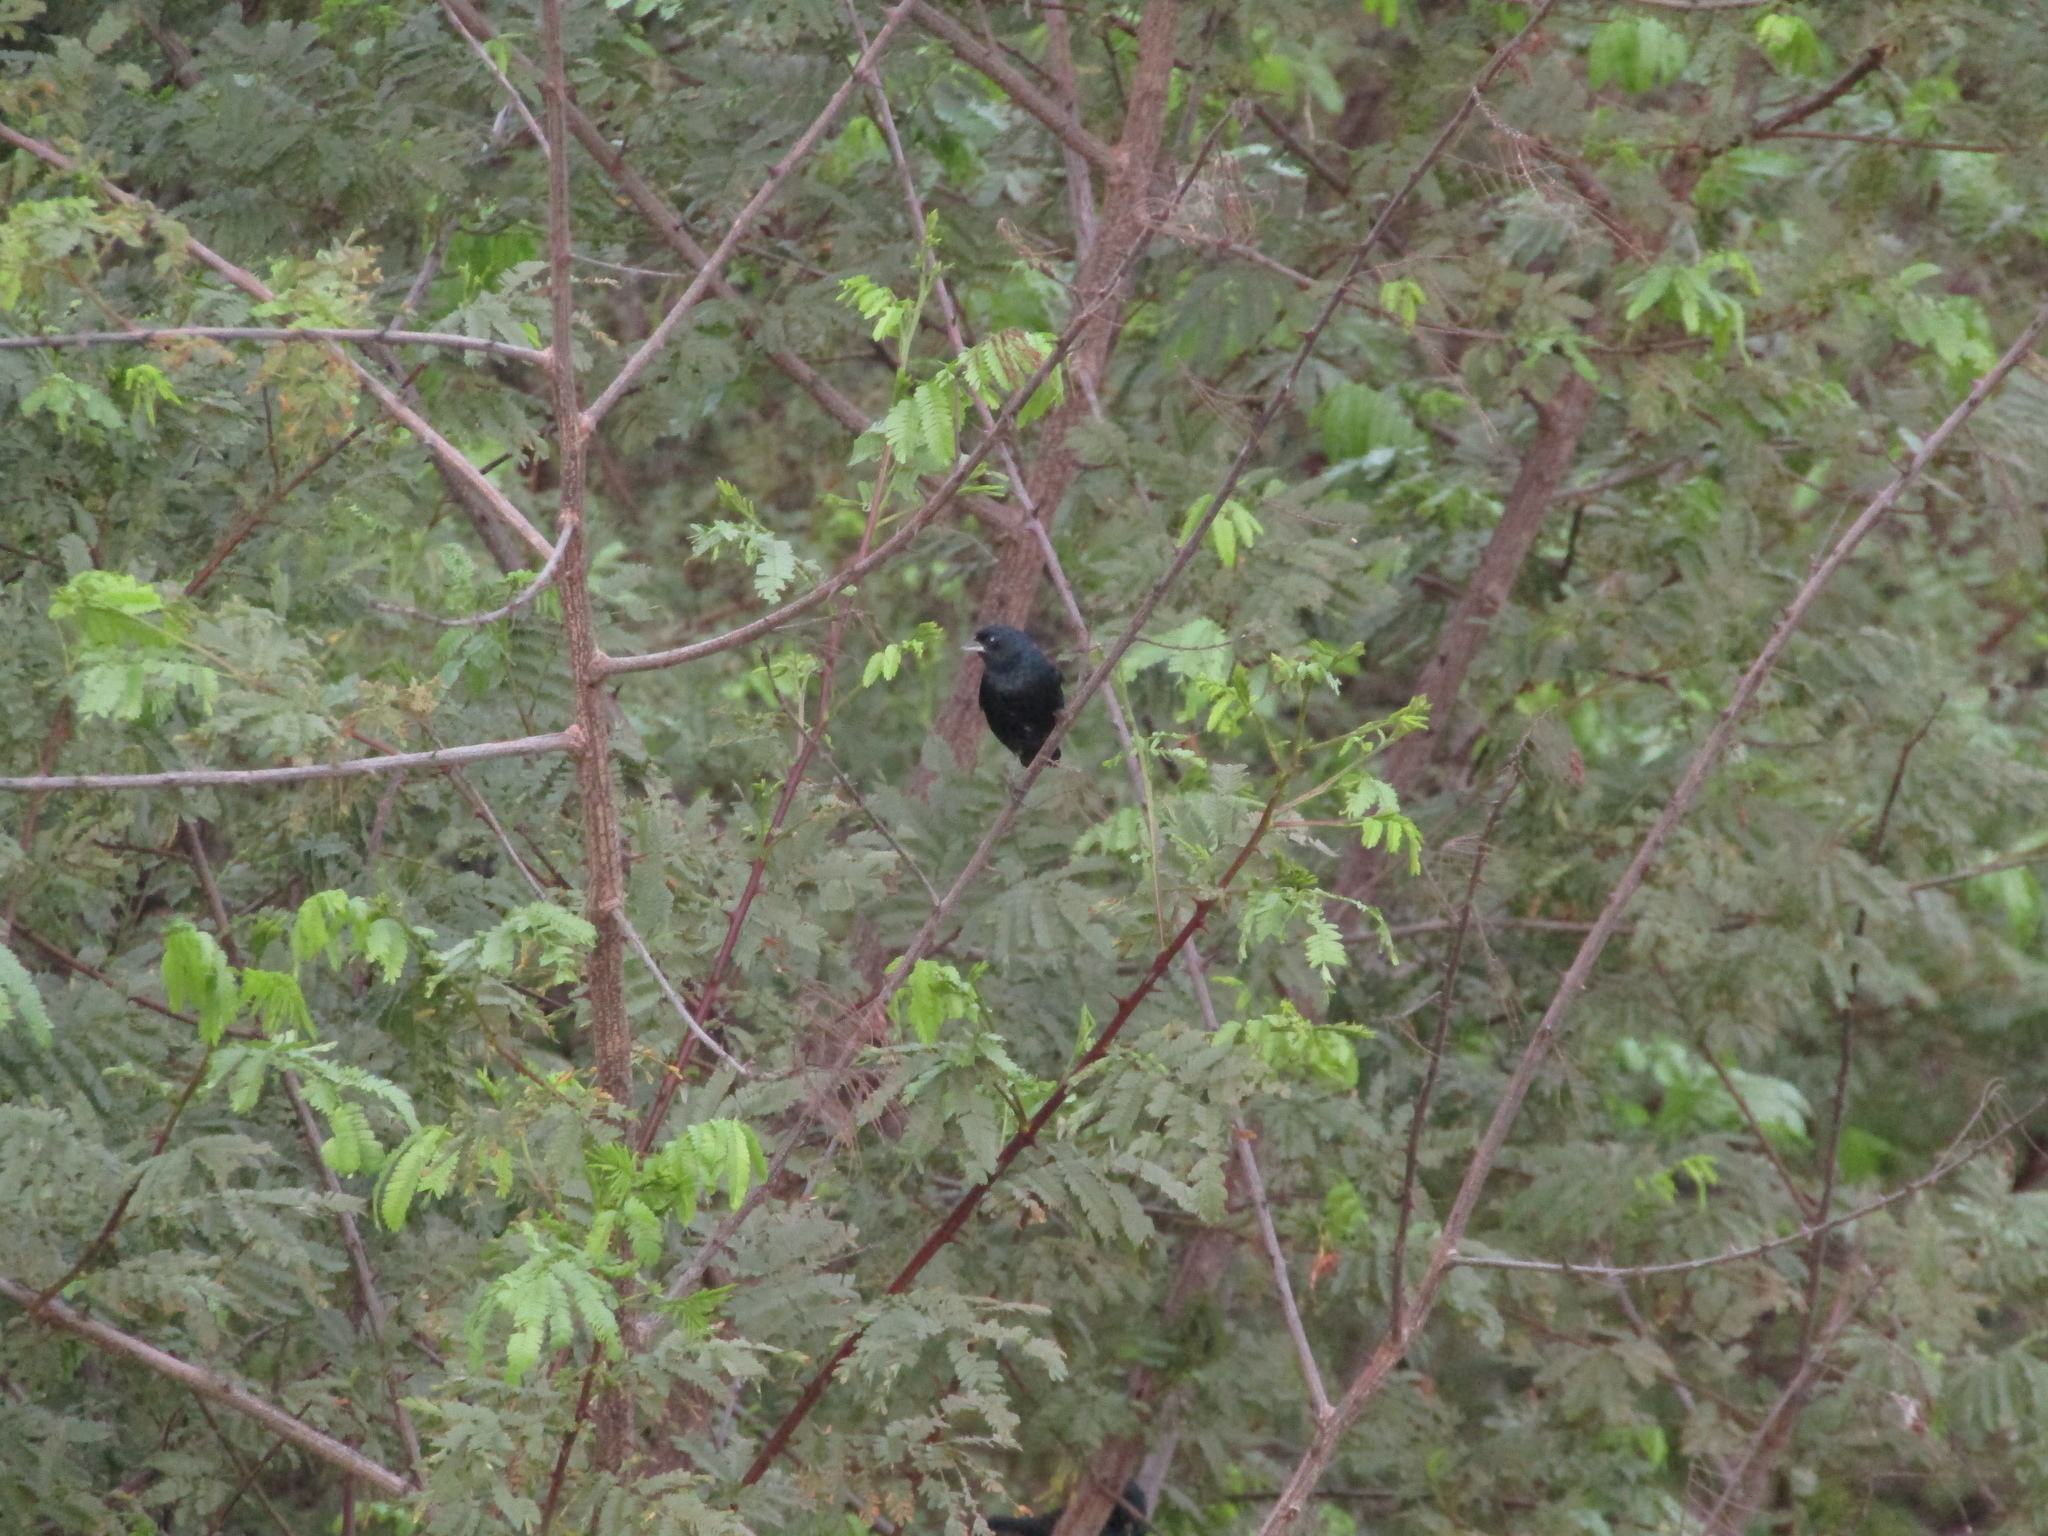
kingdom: Animalia
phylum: Chordata
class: Aves
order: Passeriformes
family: Thraupidae
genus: Volatinia
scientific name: Volatinia jacarina
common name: Blue-black grassquit
